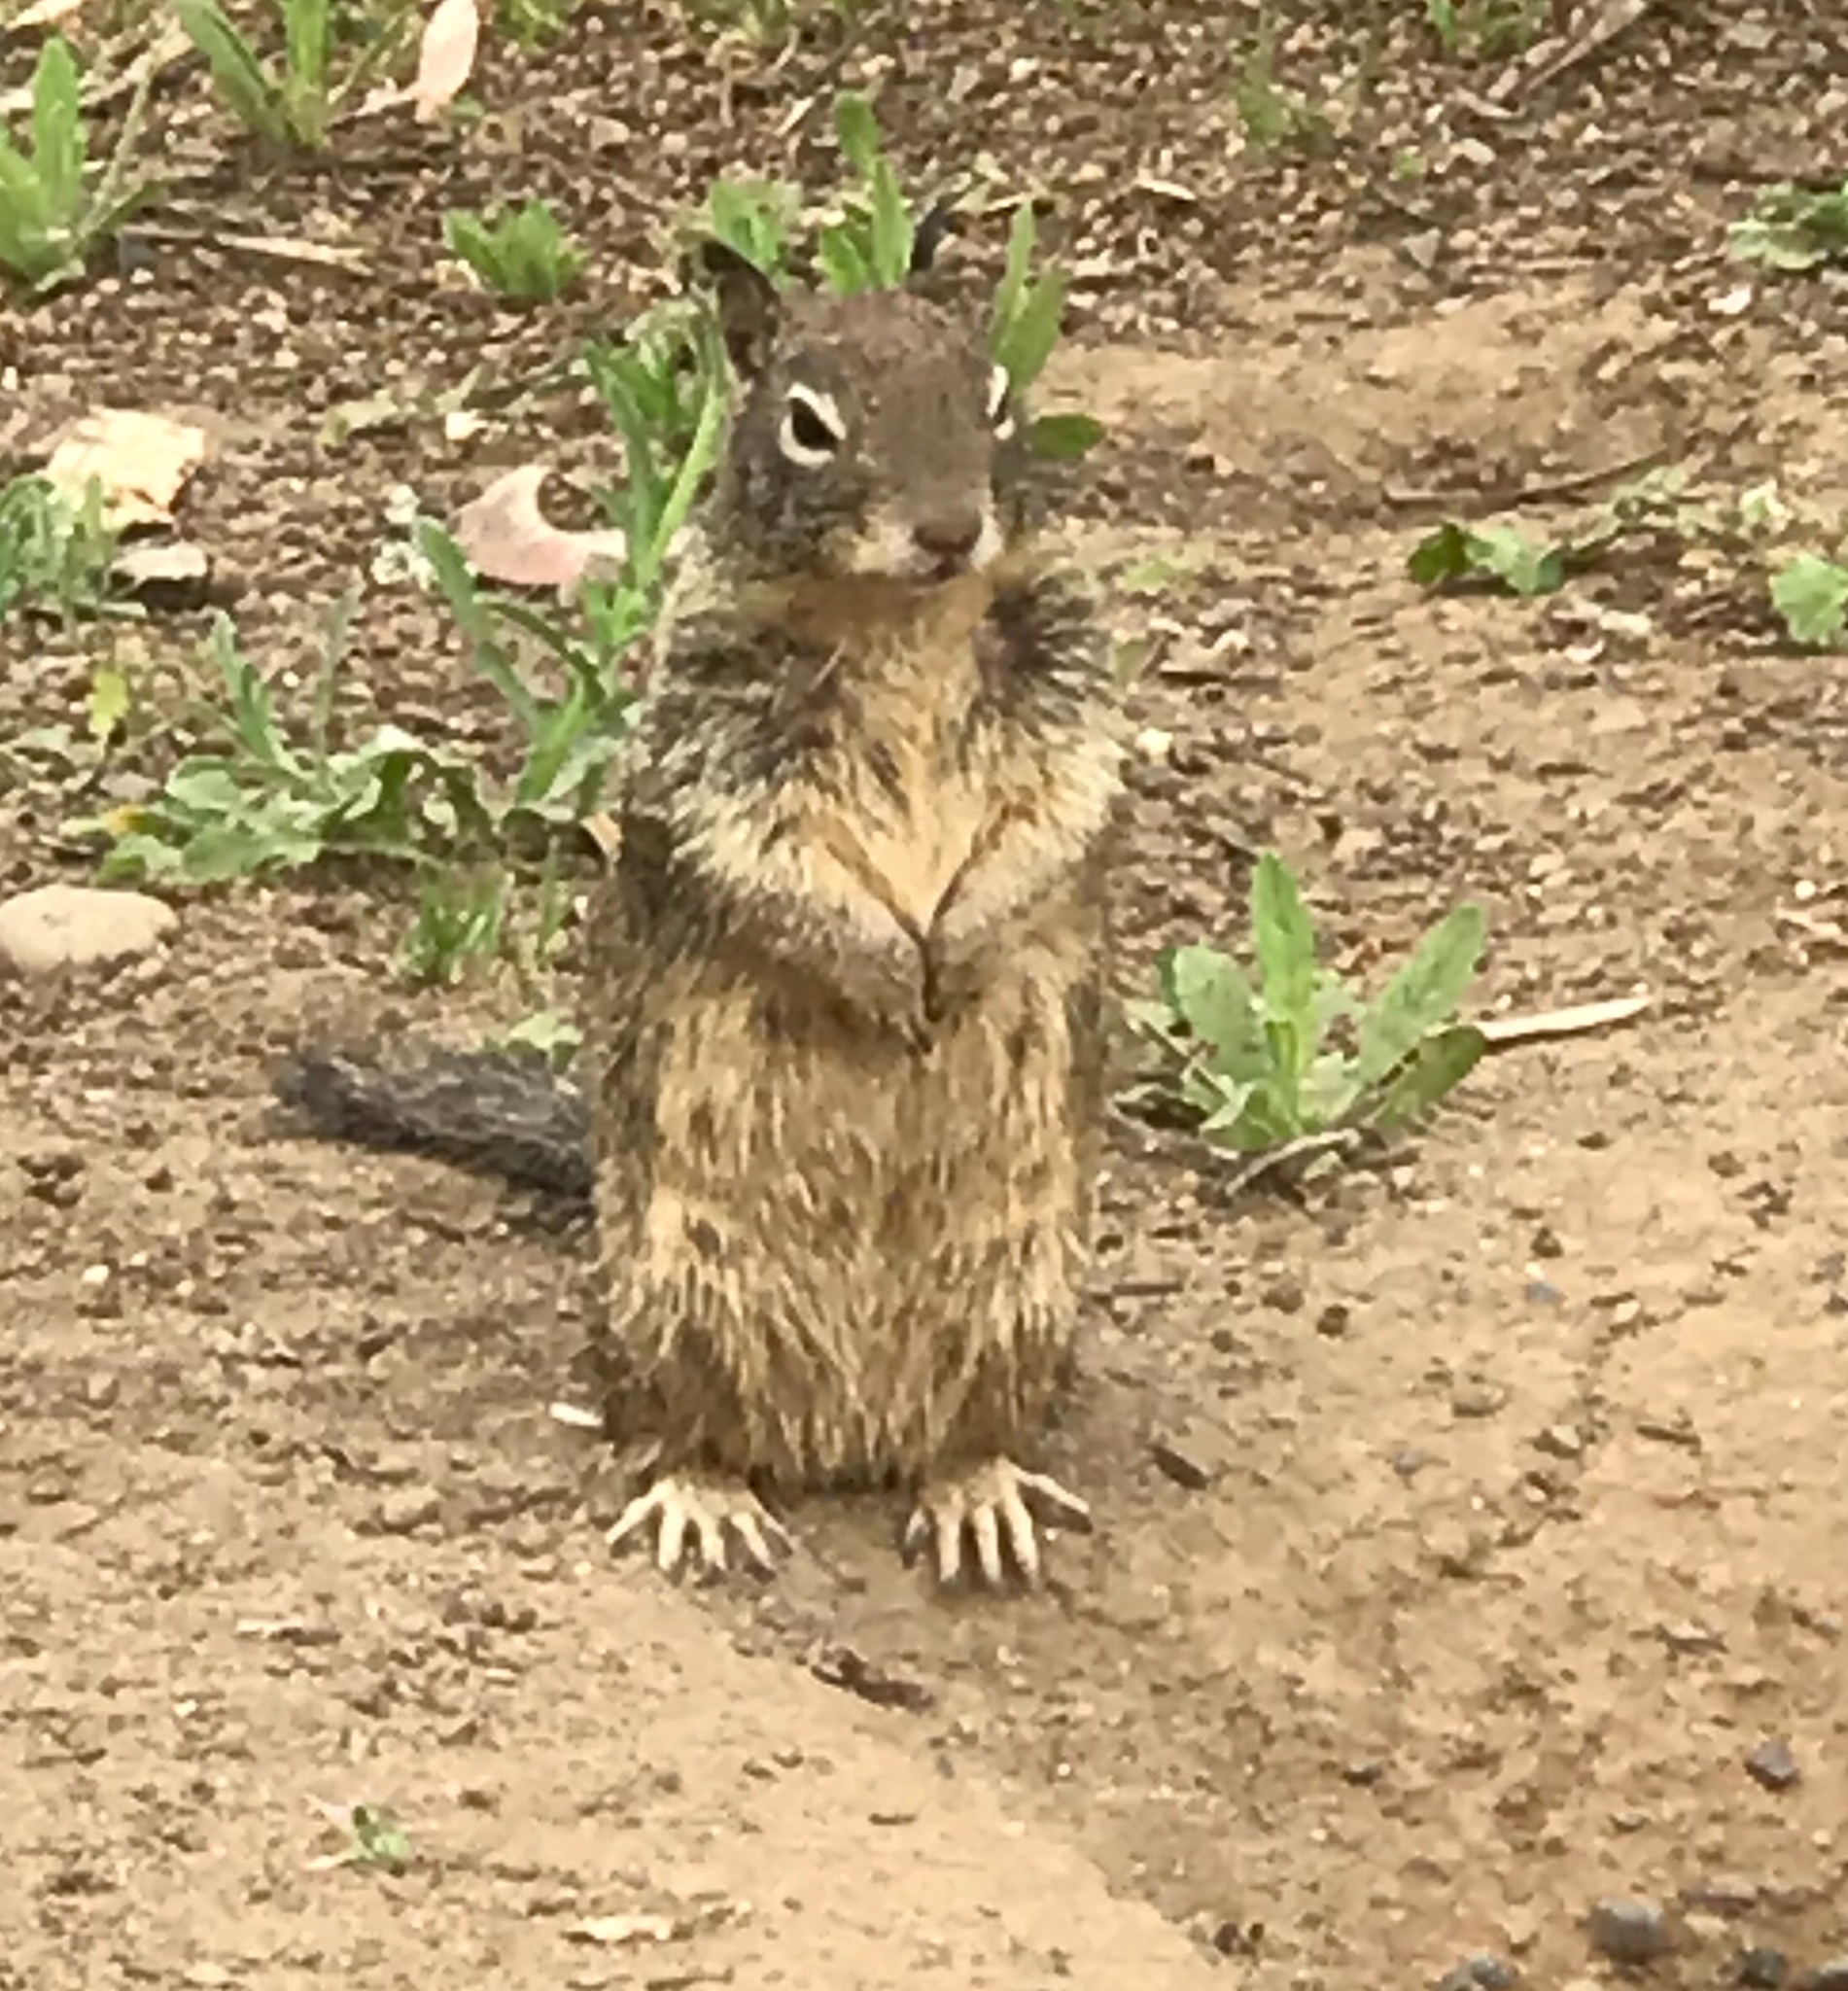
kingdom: Animalia
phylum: Chordata
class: Mammalia
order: Rodentia
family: Sciuridae
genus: Otospermophilus
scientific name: Otospermophilus beecheyi
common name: California ground squirrel
